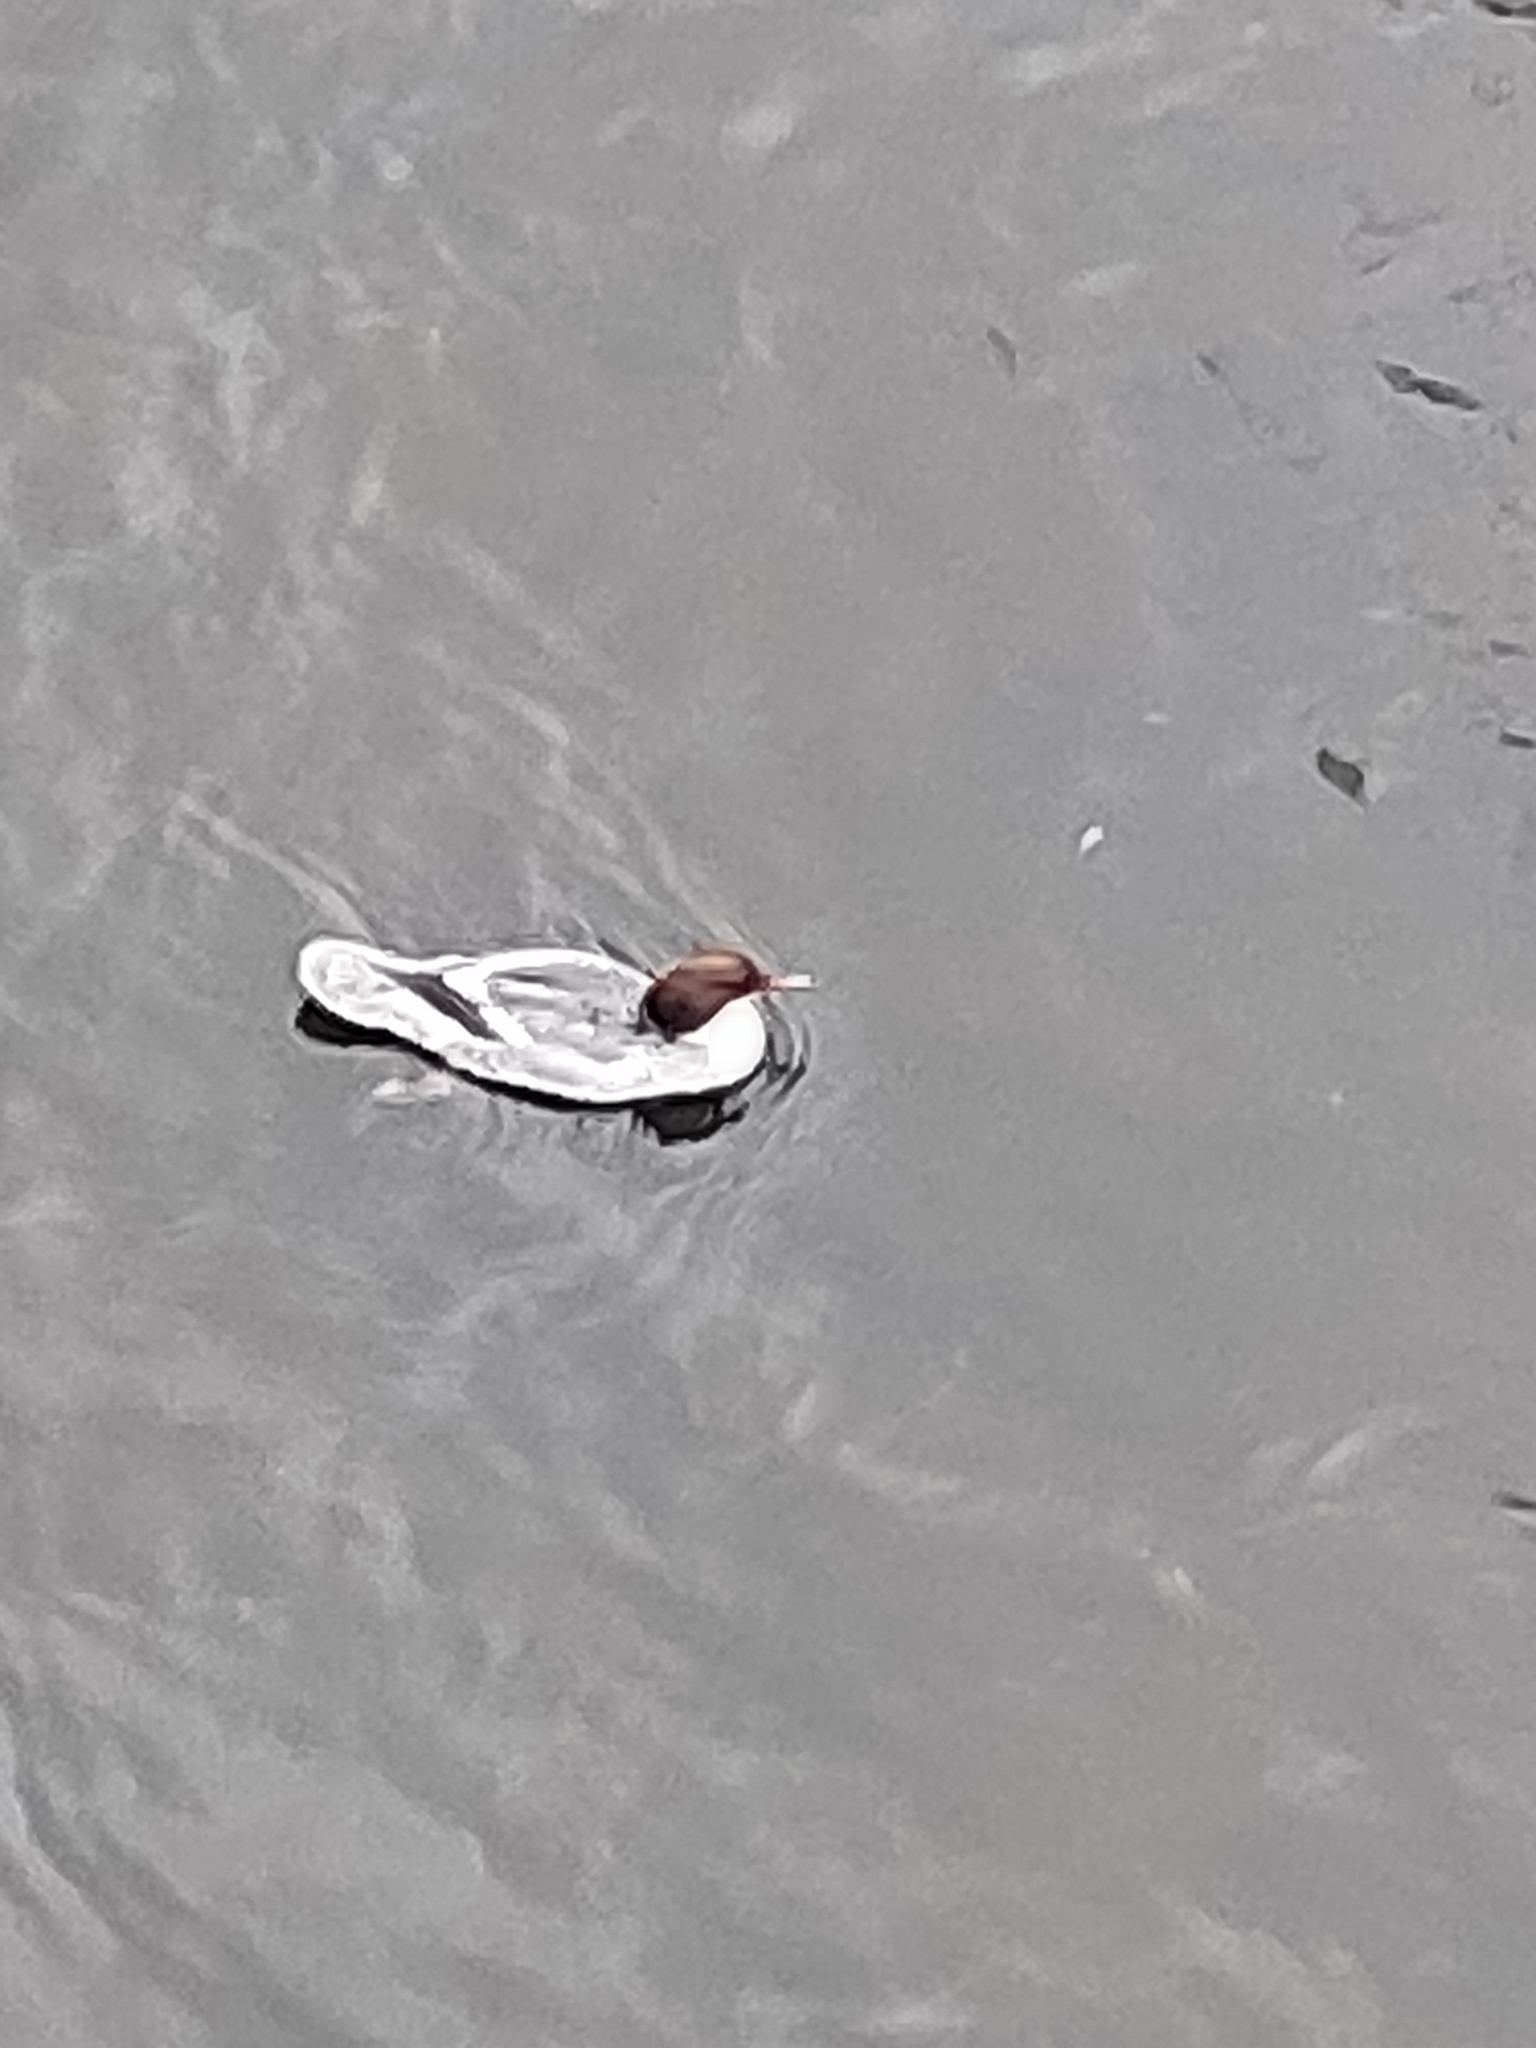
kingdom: Animalia
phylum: Chordata
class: Aves
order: Anseriformes
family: Anatidae
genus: Mergus
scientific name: Mergus merganser
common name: Common merganser
